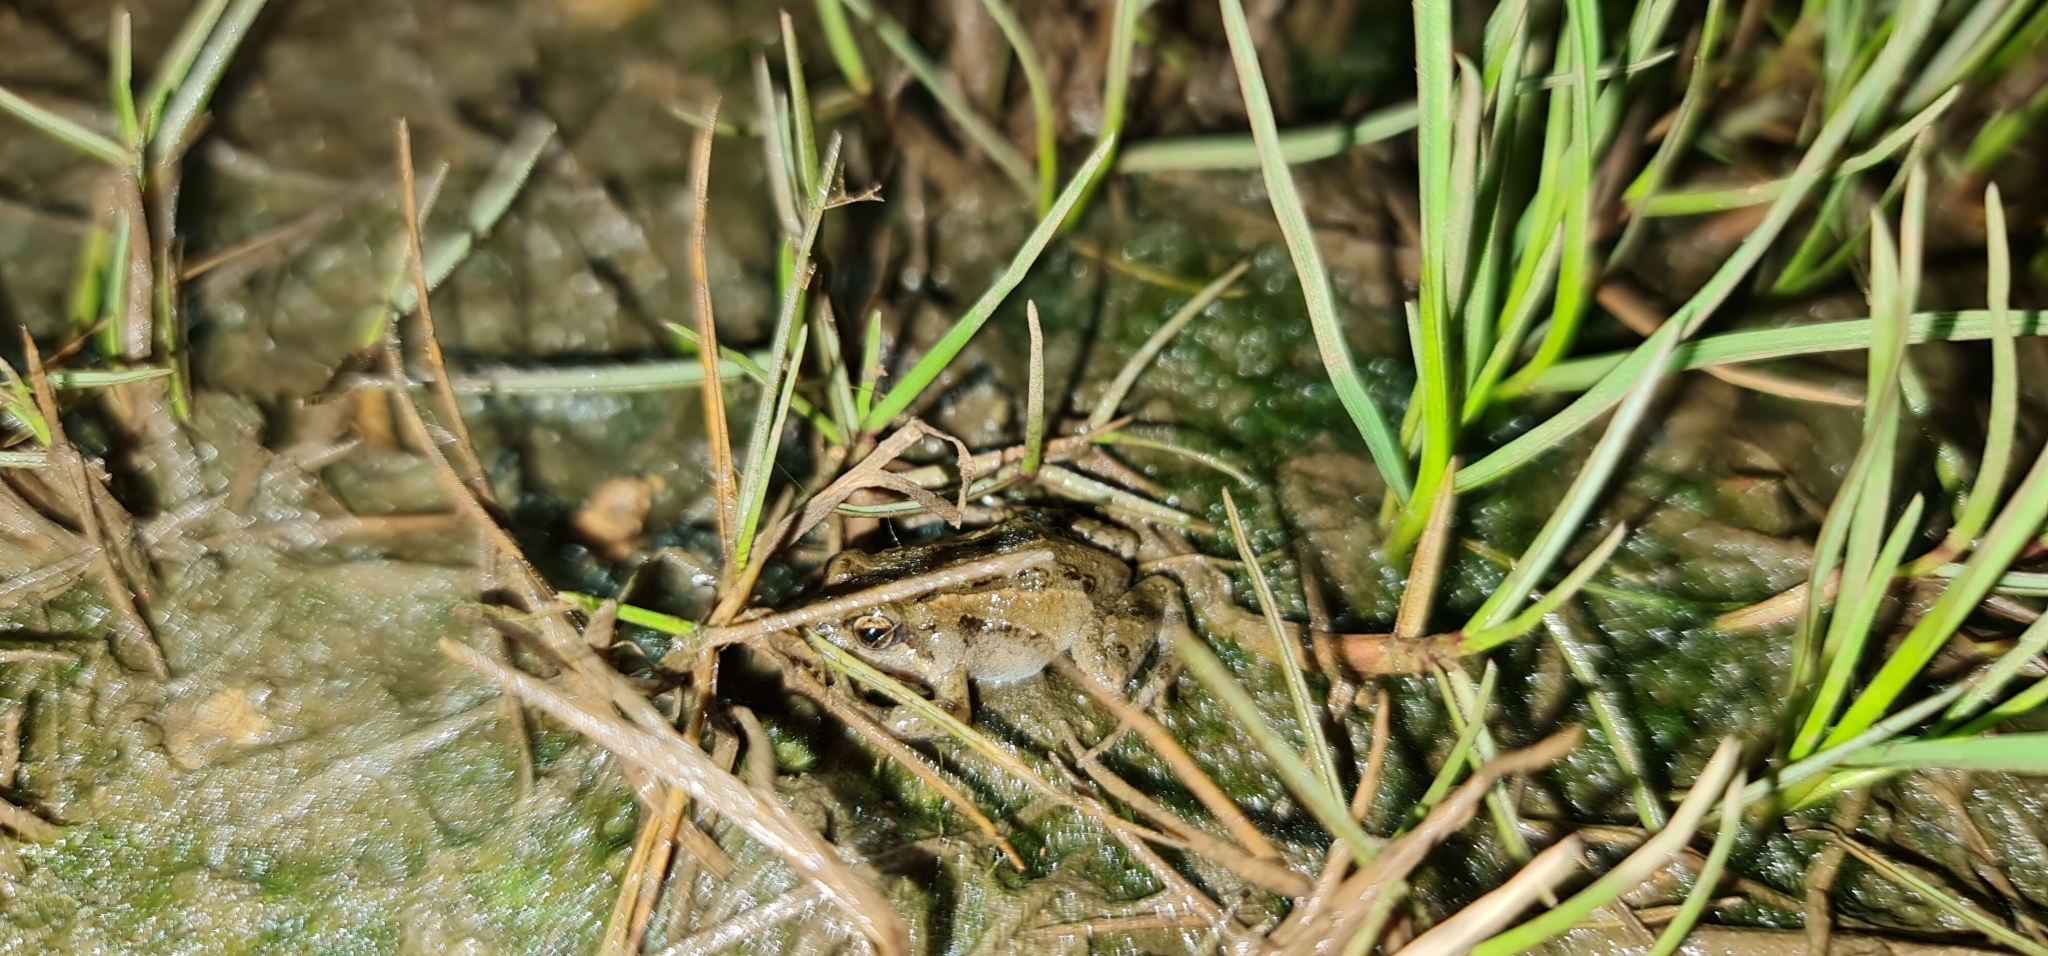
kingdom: Animalia
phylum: Chordata
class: Amphibia
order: Anura
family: Myobatrachidae
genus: Crinia
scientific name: Crinia signifera
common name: Brown froglet
